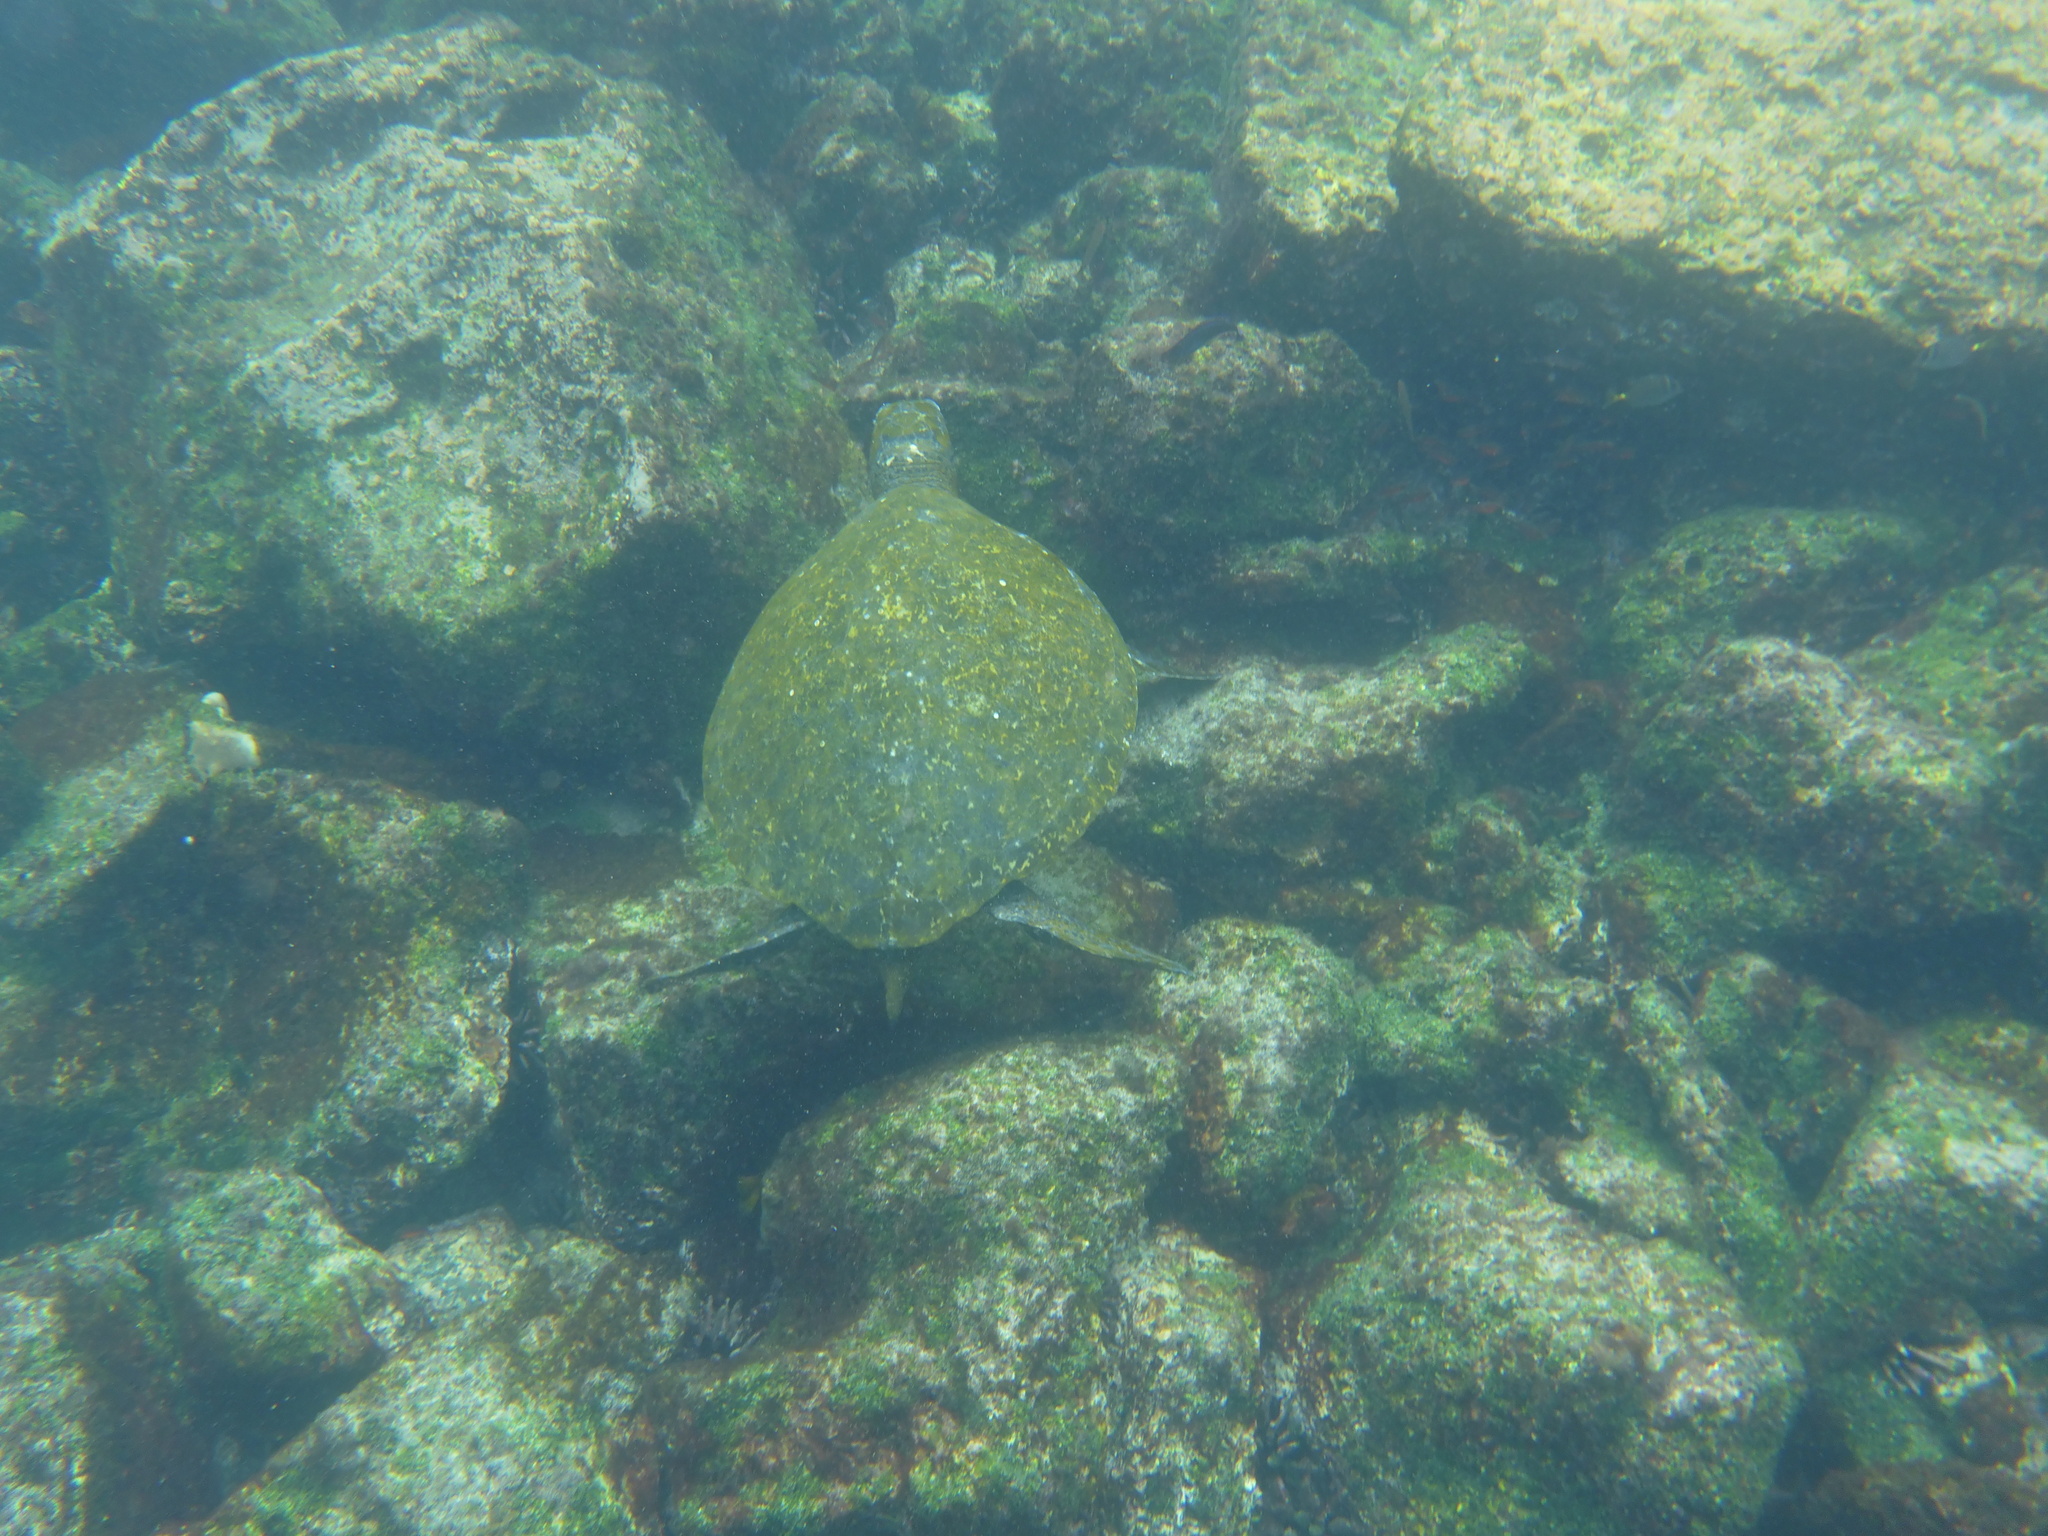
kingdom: Animalia
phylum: Chordata
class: Testudines
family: Cheloniidae
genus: Chelonia
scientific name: Chelonia mydas
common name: Green turtle
